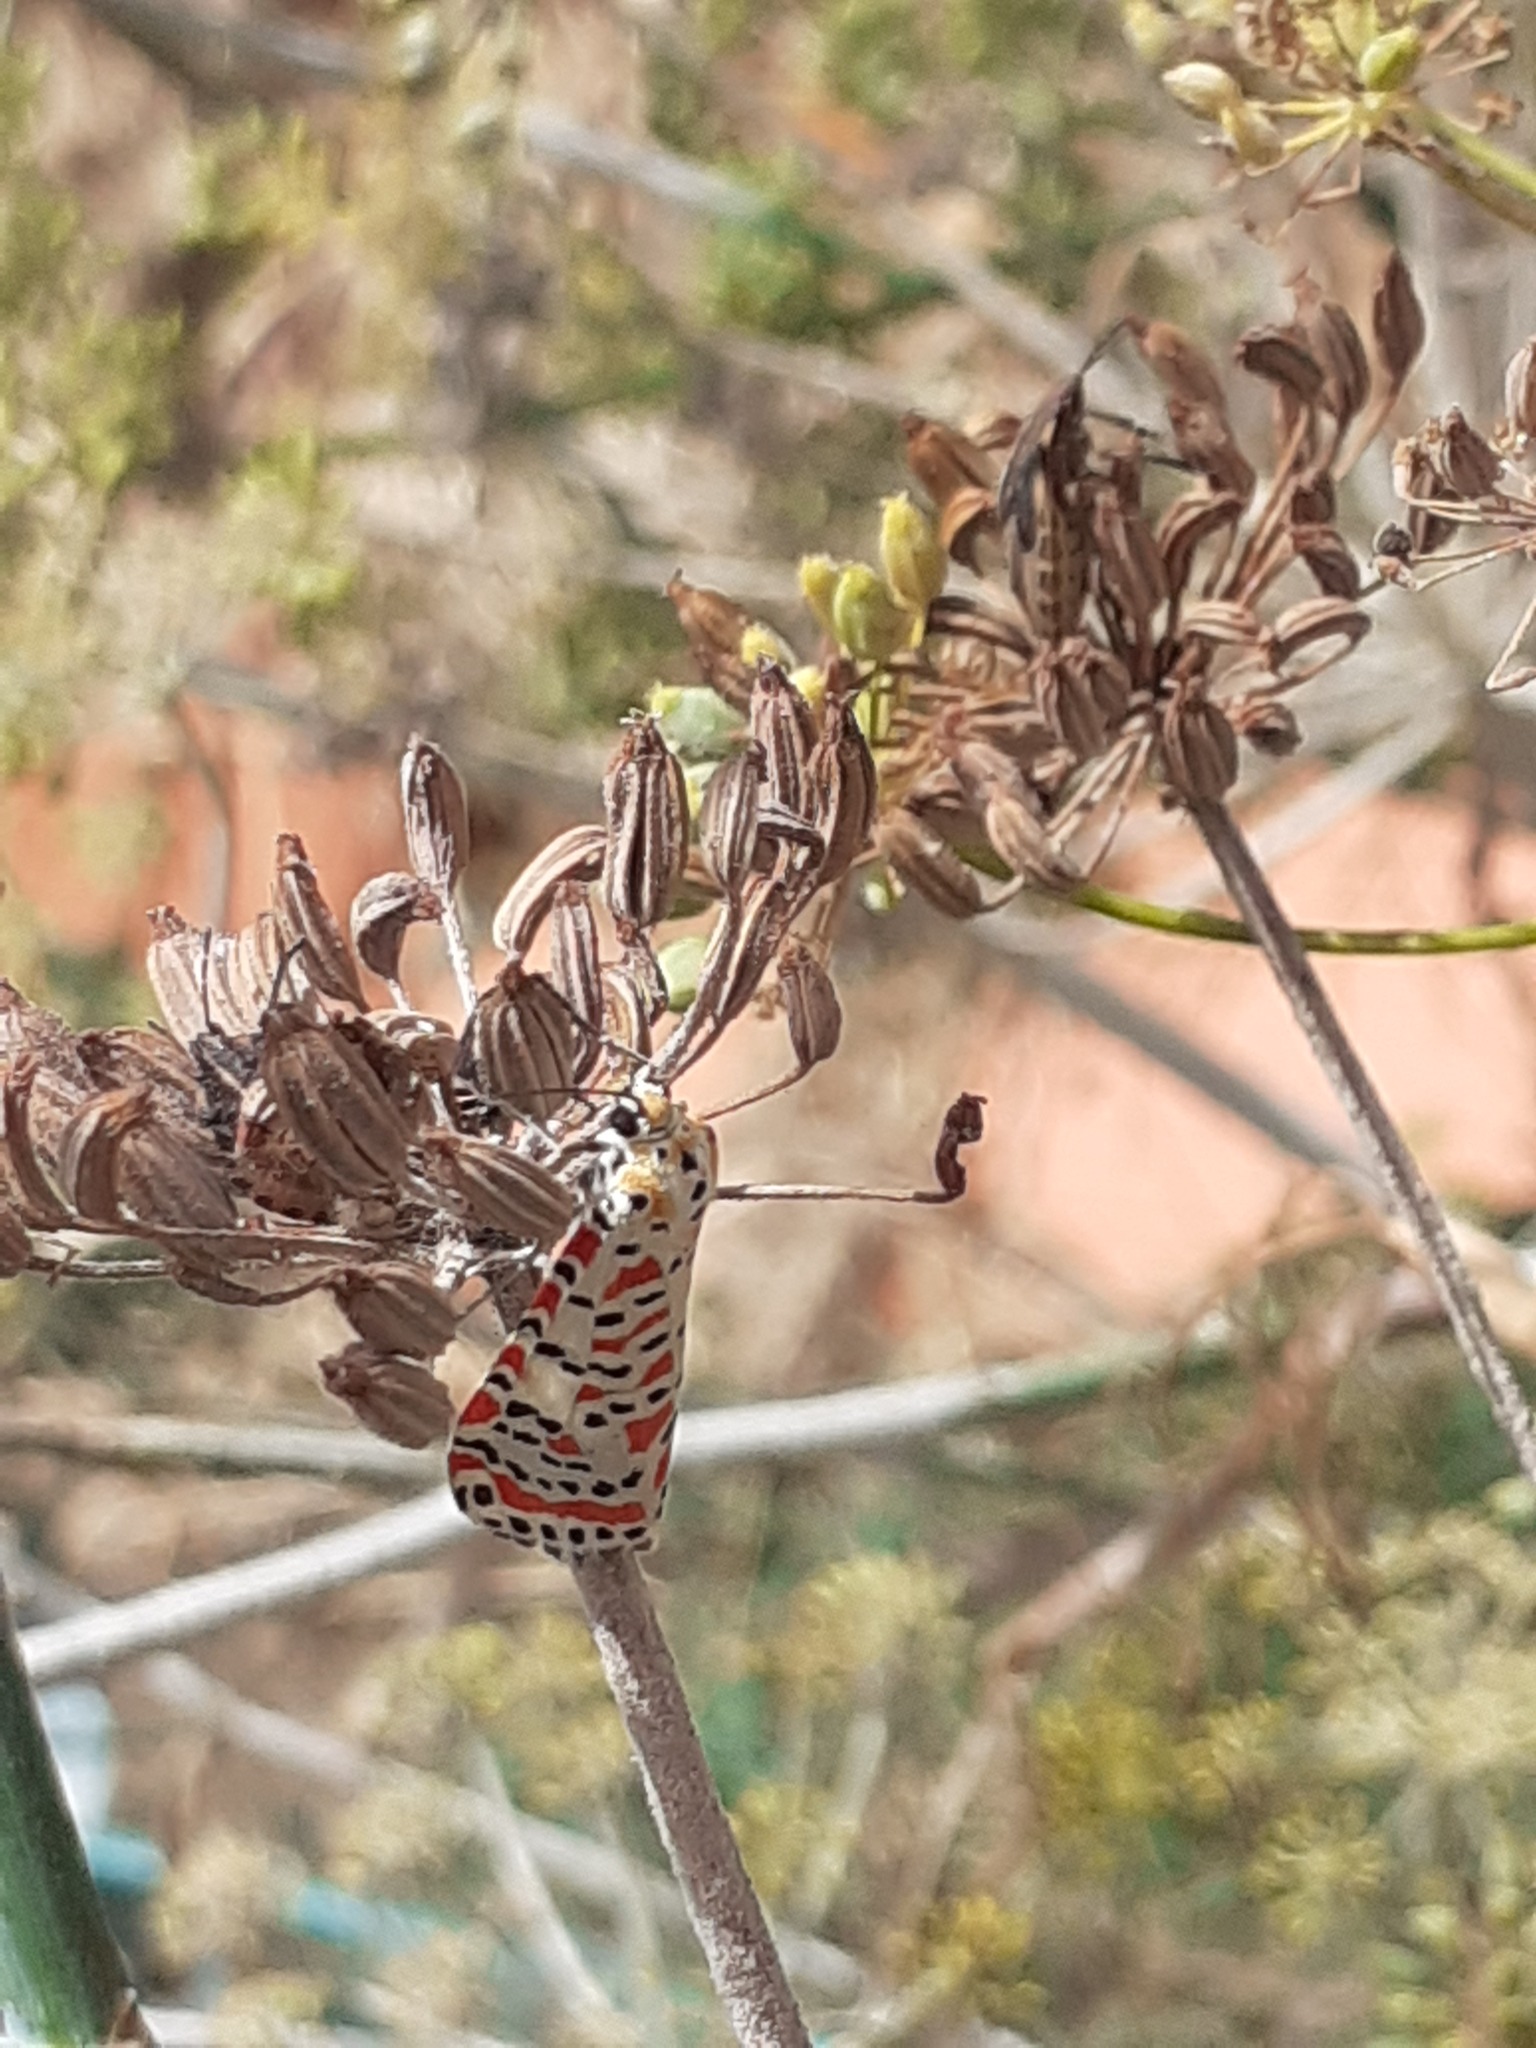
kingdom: Animalia
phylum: Arthropoda
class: Insecta
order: Lepidoptera
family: Erebidae
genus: Utetheisa
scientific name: Utetheisa pulchella
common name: Crimson speckled
